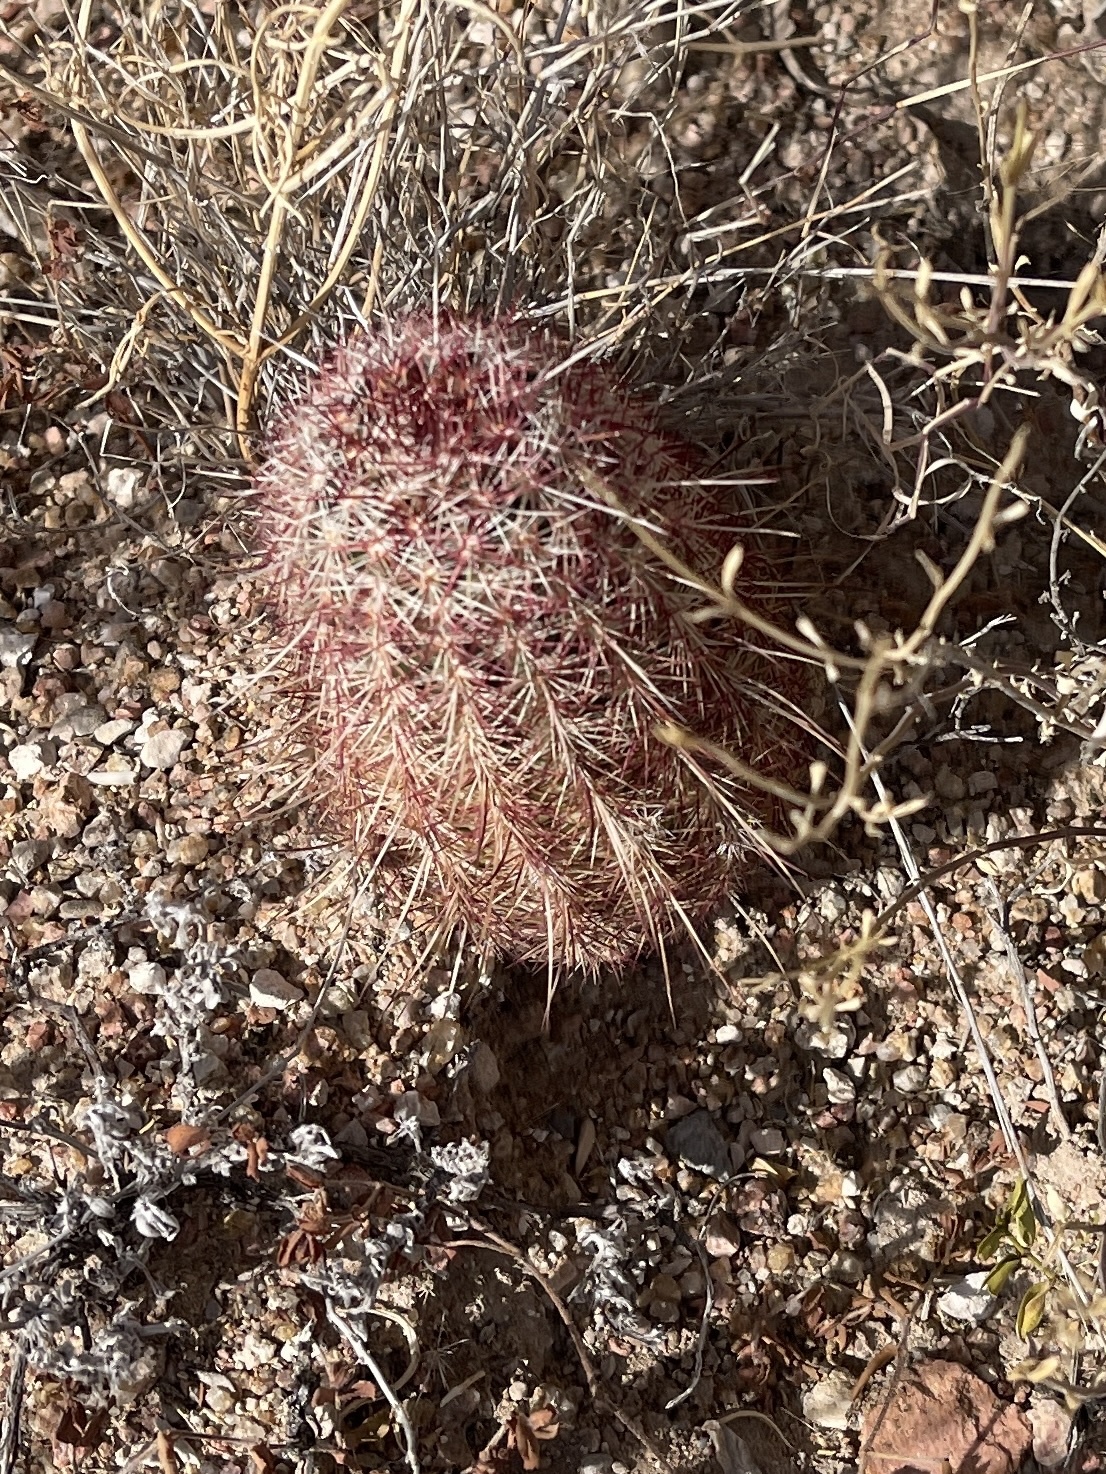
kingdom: Plantae
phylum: Tracheophyta
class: Magnoliopsida
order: Caryophyllales
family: Cactaceae
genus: Echinocereus
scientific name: Echinocereus viridiflorus
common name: Nylon hedgehog cactus
